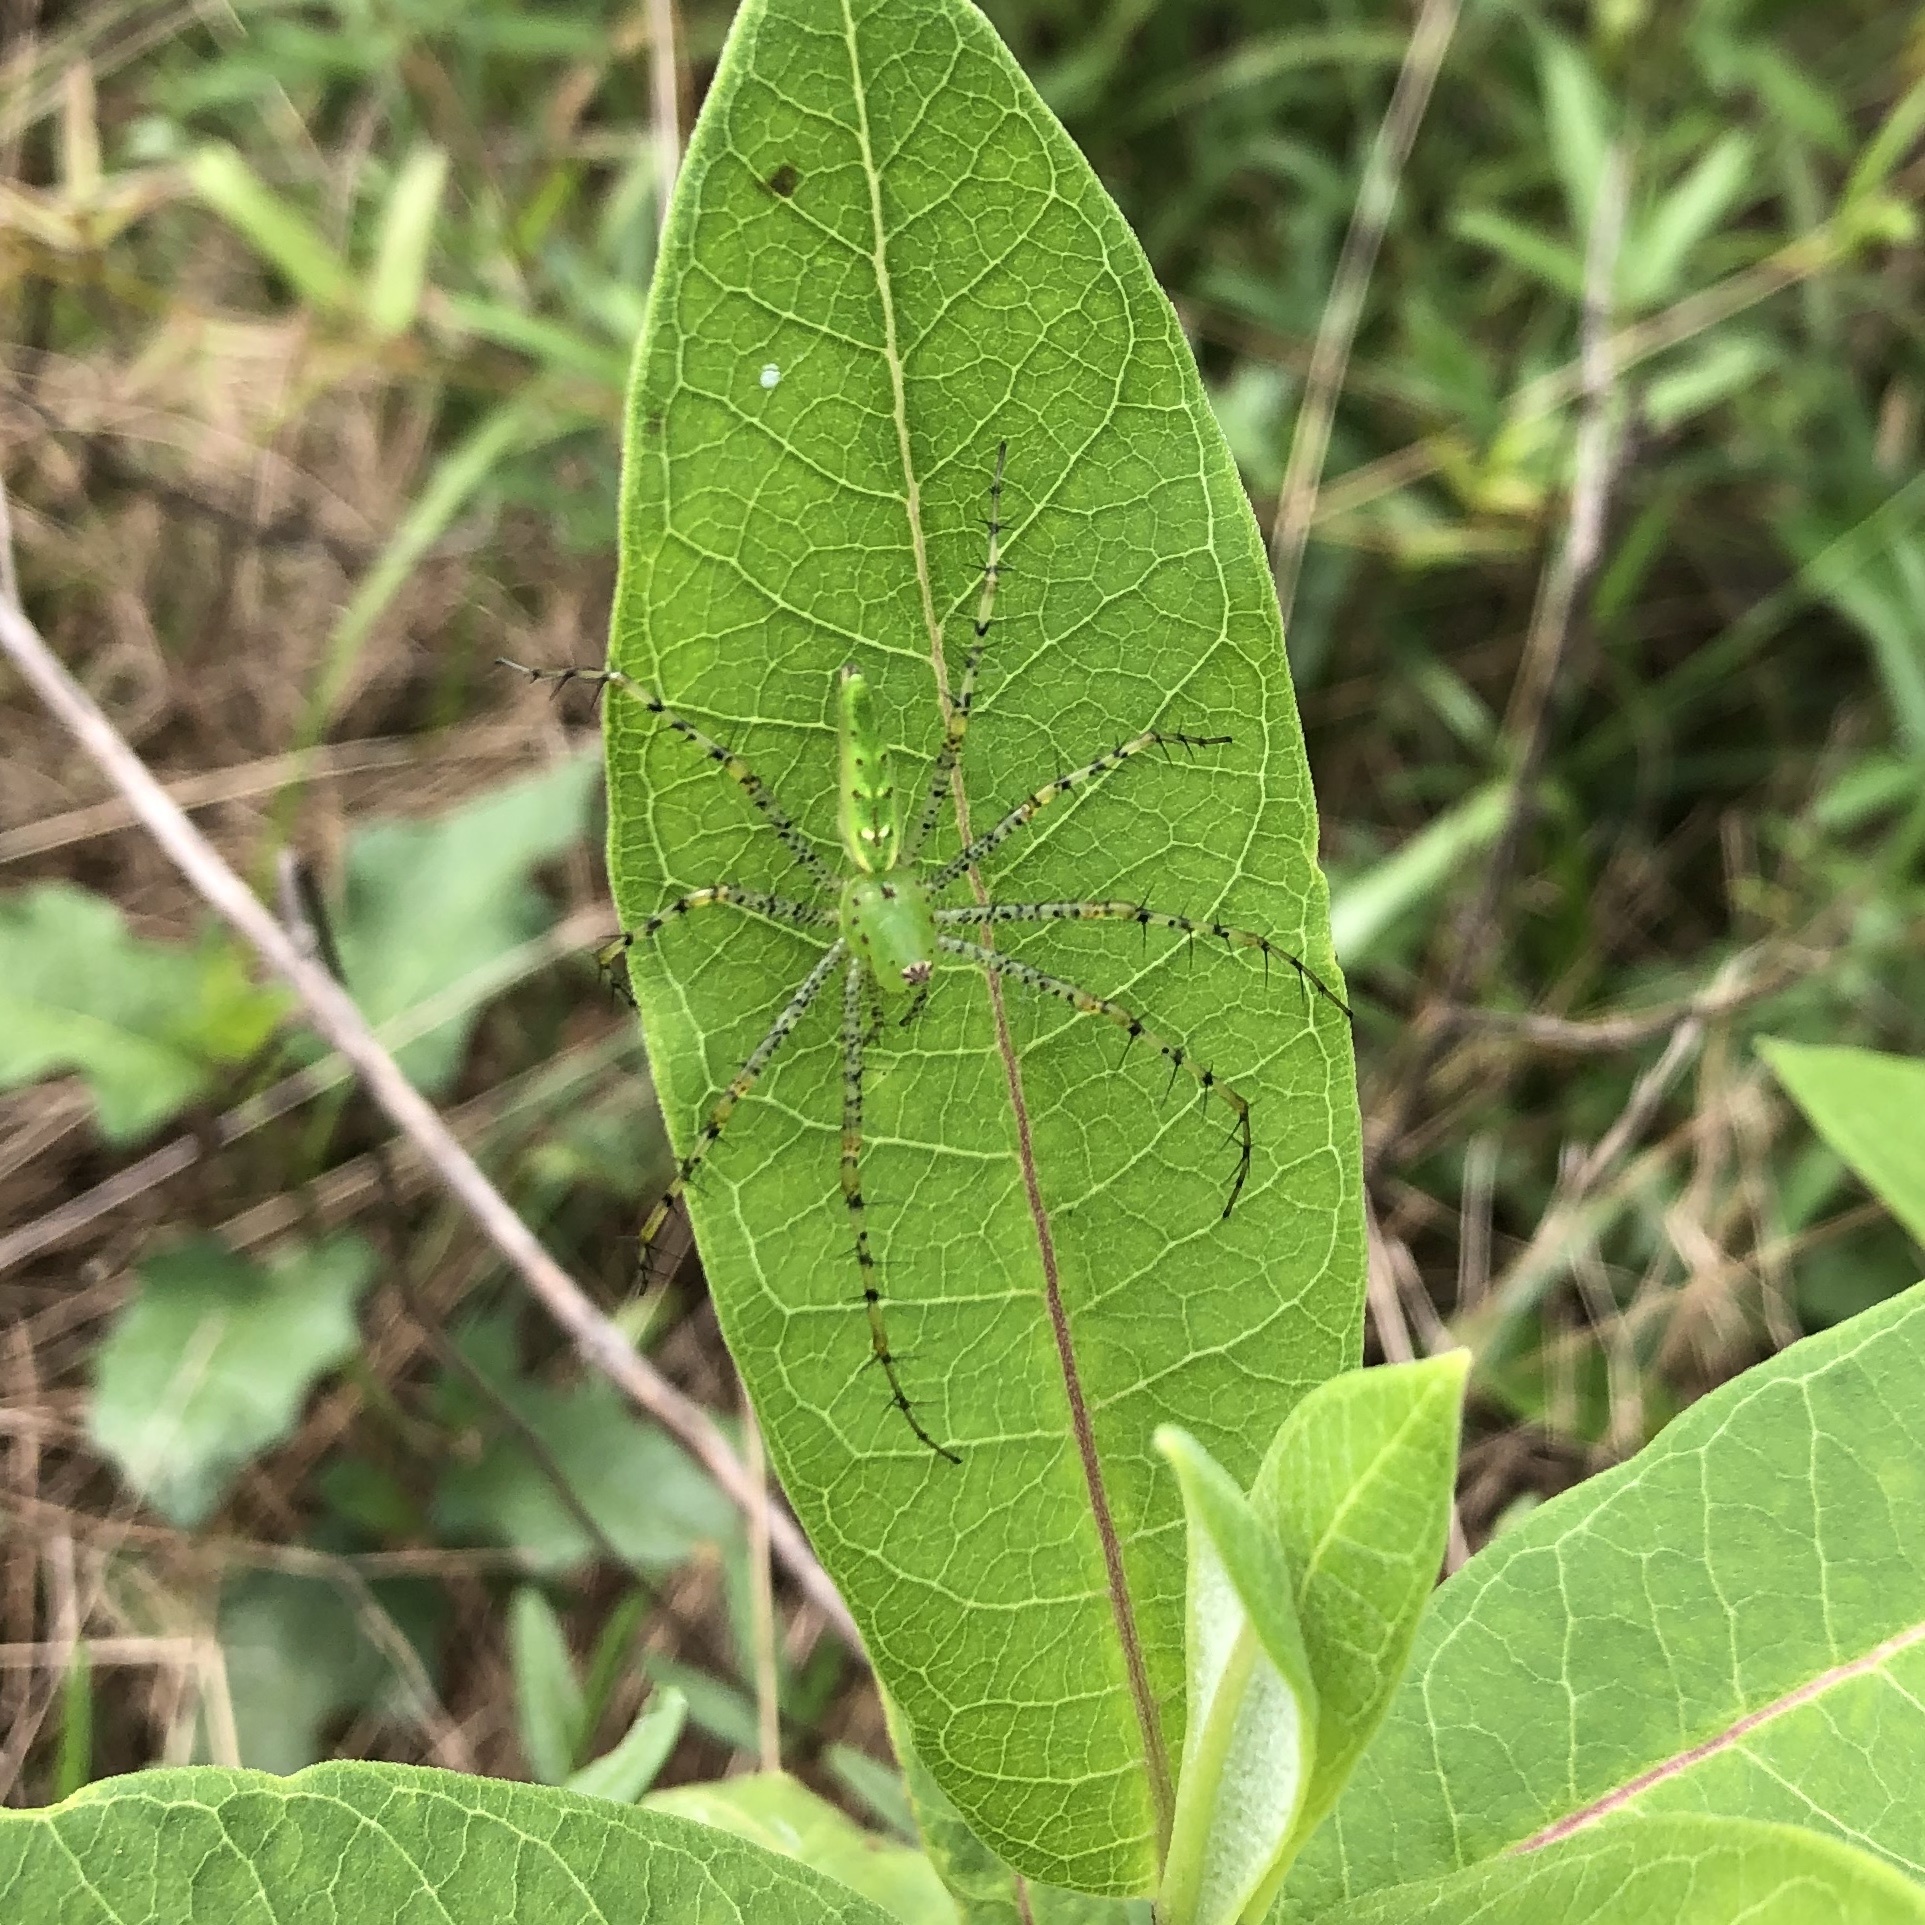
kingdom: Animalia
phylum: Arthropoda
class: Arachnida
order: Araneae
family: Oxyopidae
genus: Peucetia
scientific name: Peucetia viridans
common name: Lynx spiders
